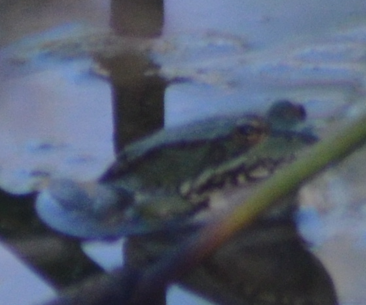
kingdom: Animalia
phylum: Chordata
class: Amphibia
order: Anura
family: Ranidae
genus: Pelophylax
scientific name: Pelophylax
